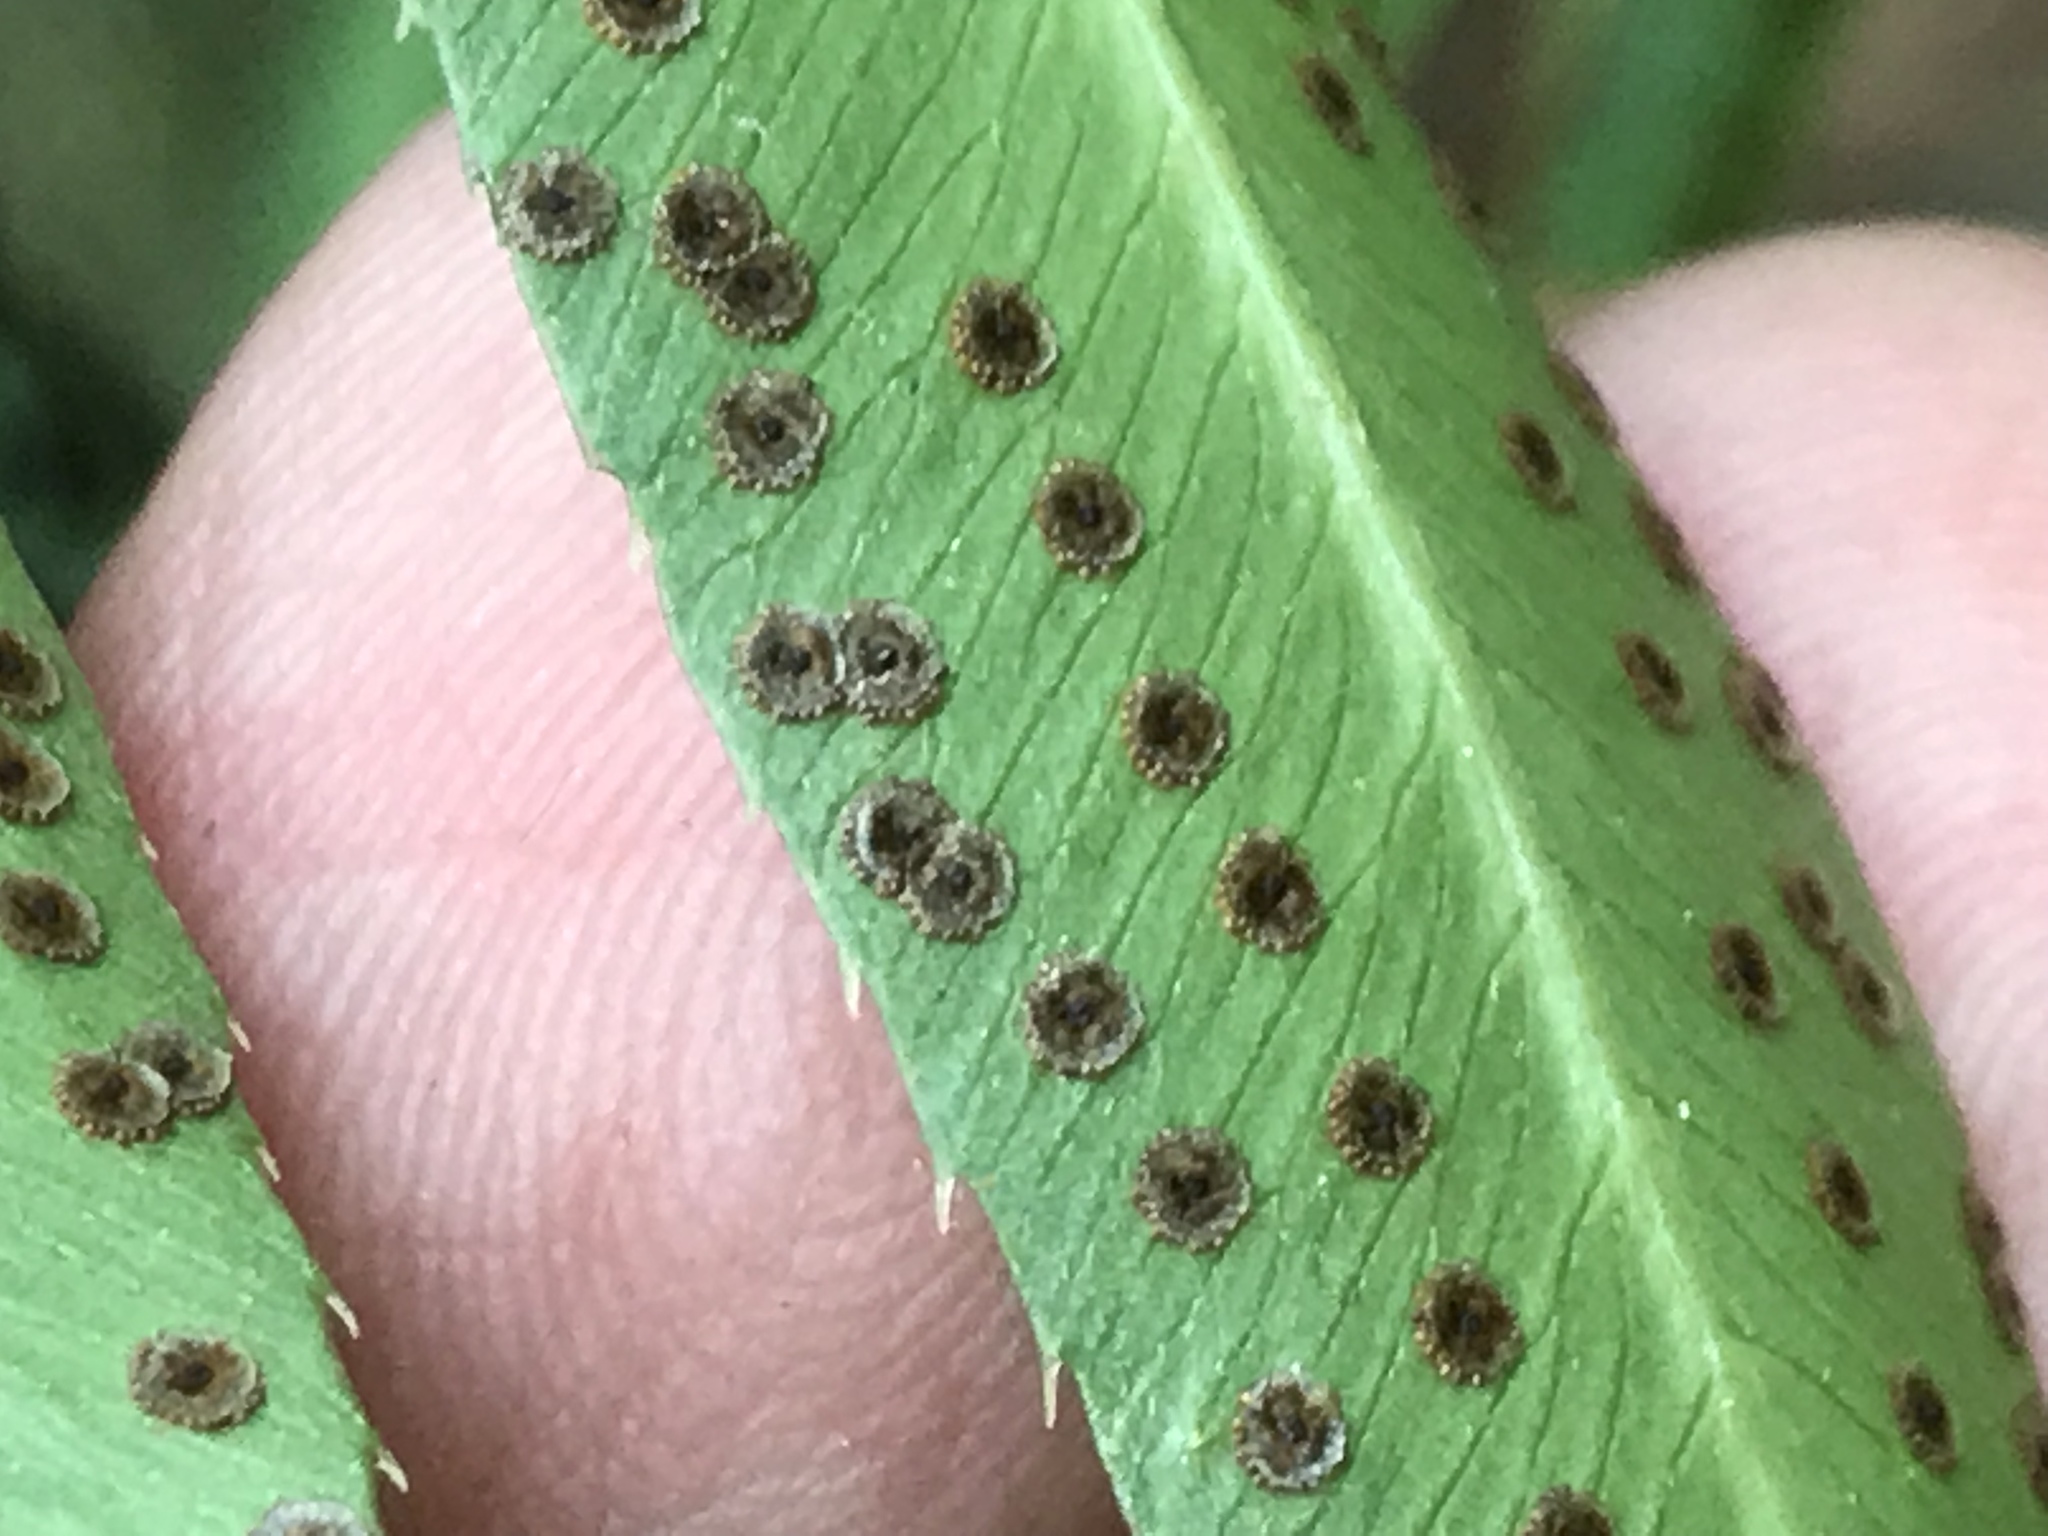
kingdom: Plantae
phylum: Tracheophyta
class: Polypodiopsida
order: Polypodiales
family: Dryopteridaceae
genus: Phanerophlebia
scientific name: Phanerophlebia umbonata
